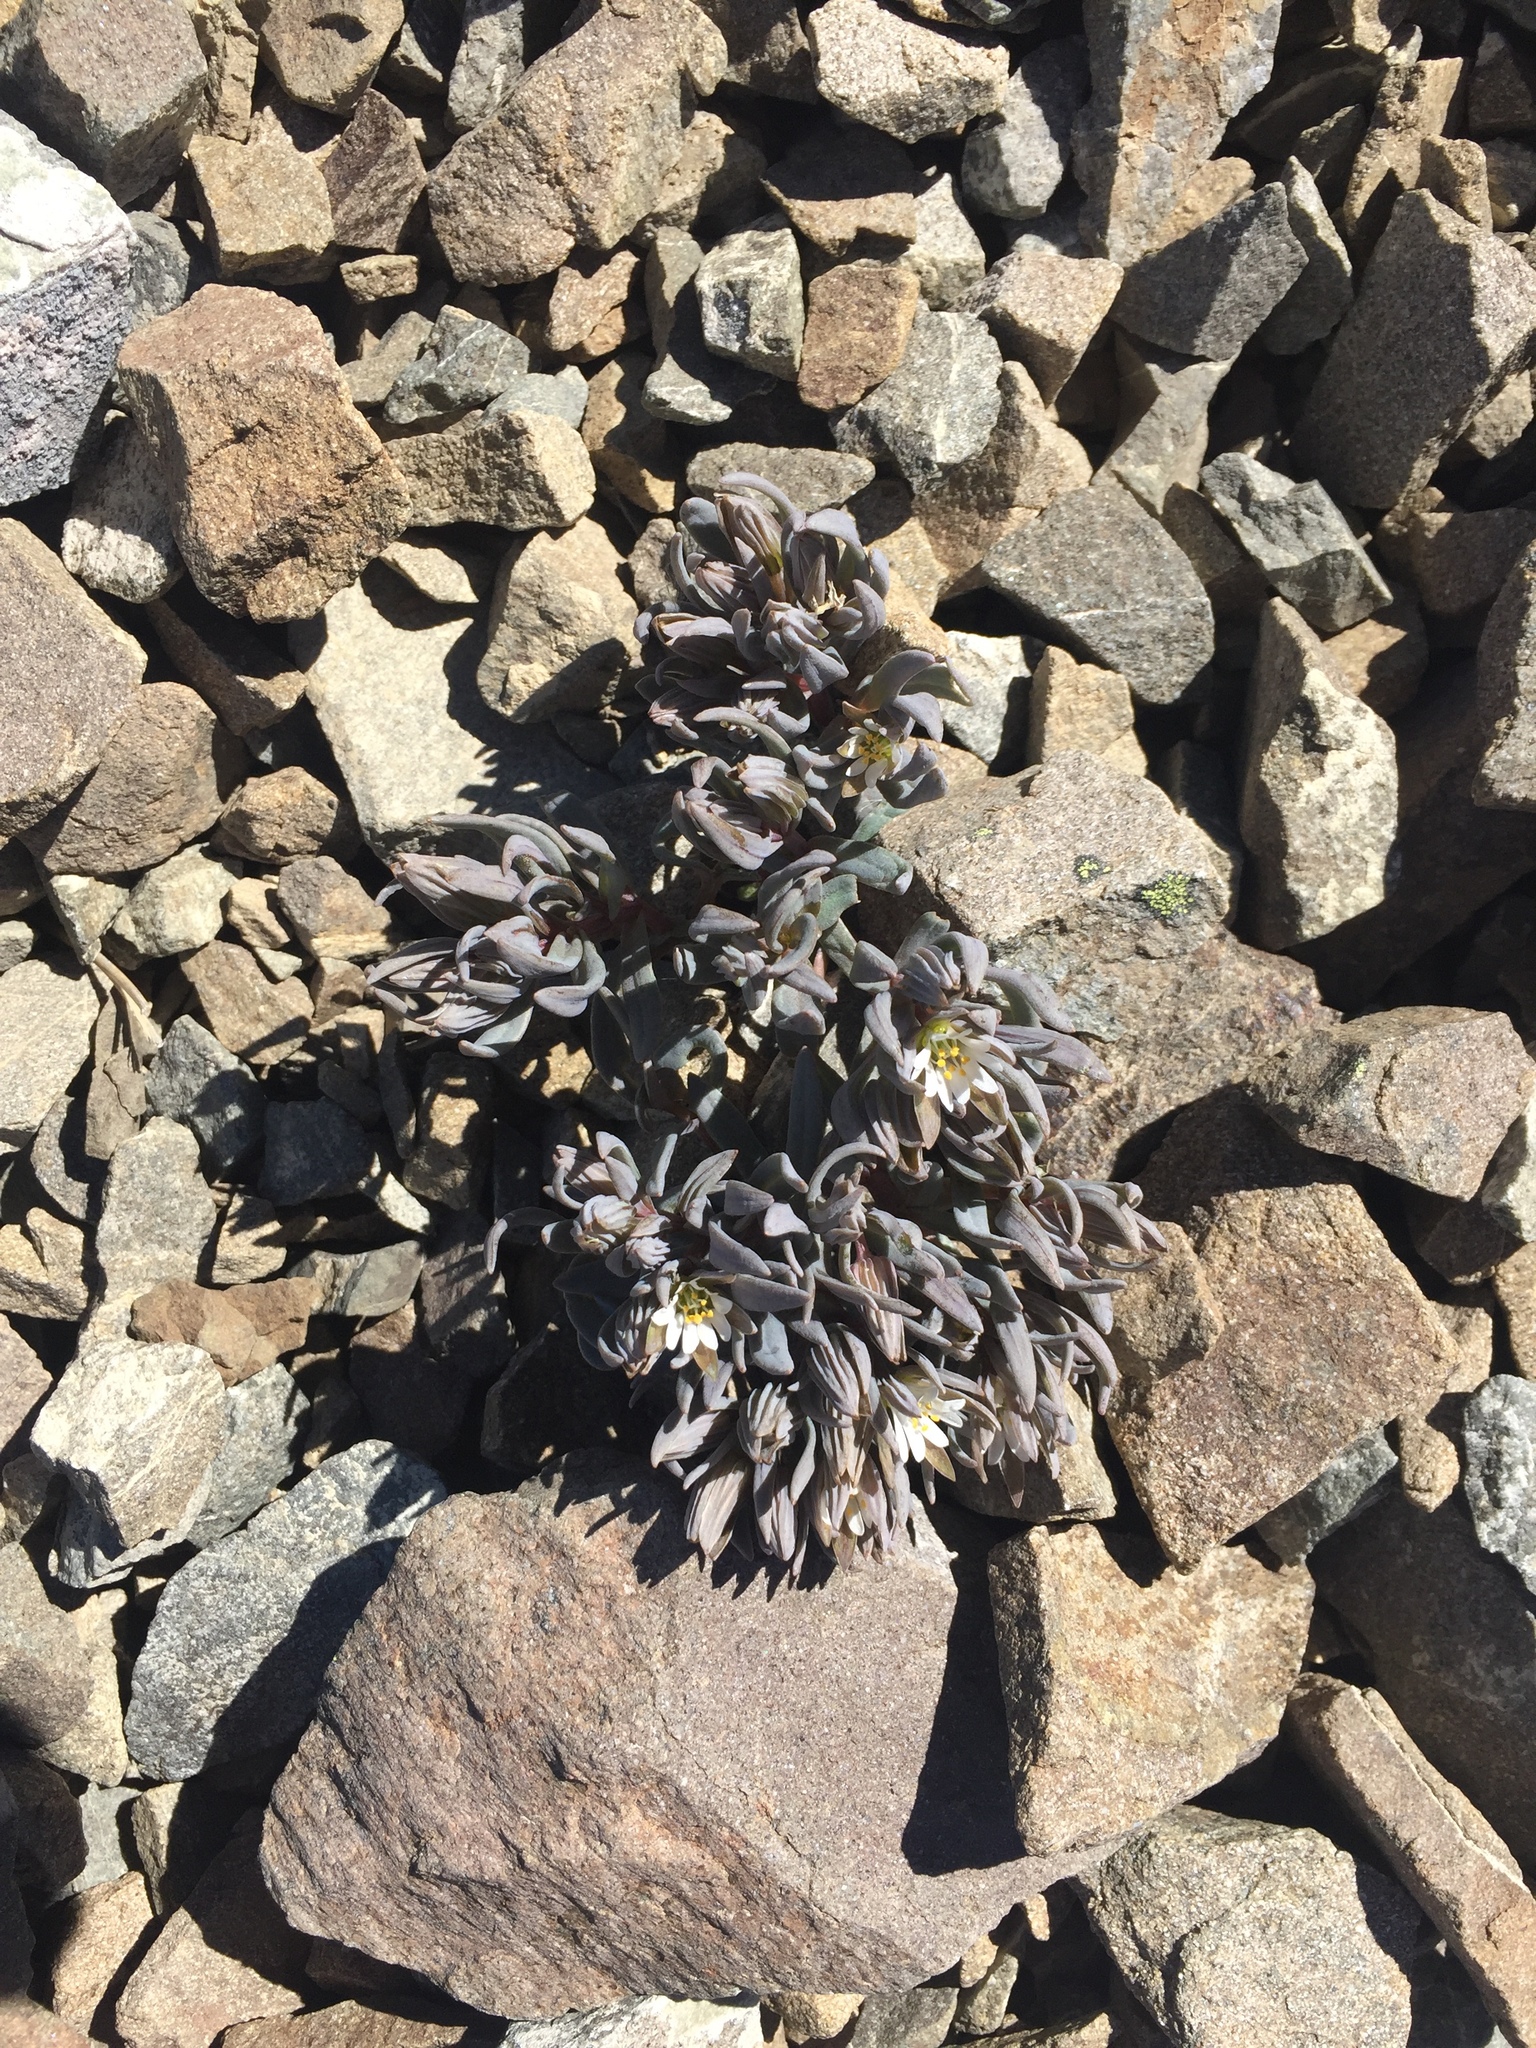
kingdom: Plantae
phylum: Tracheophyta
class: Magnoliopsida
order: Caryophyllales
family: Caryophyllaceae
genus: Stellaria
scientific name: Stellaria roughii
